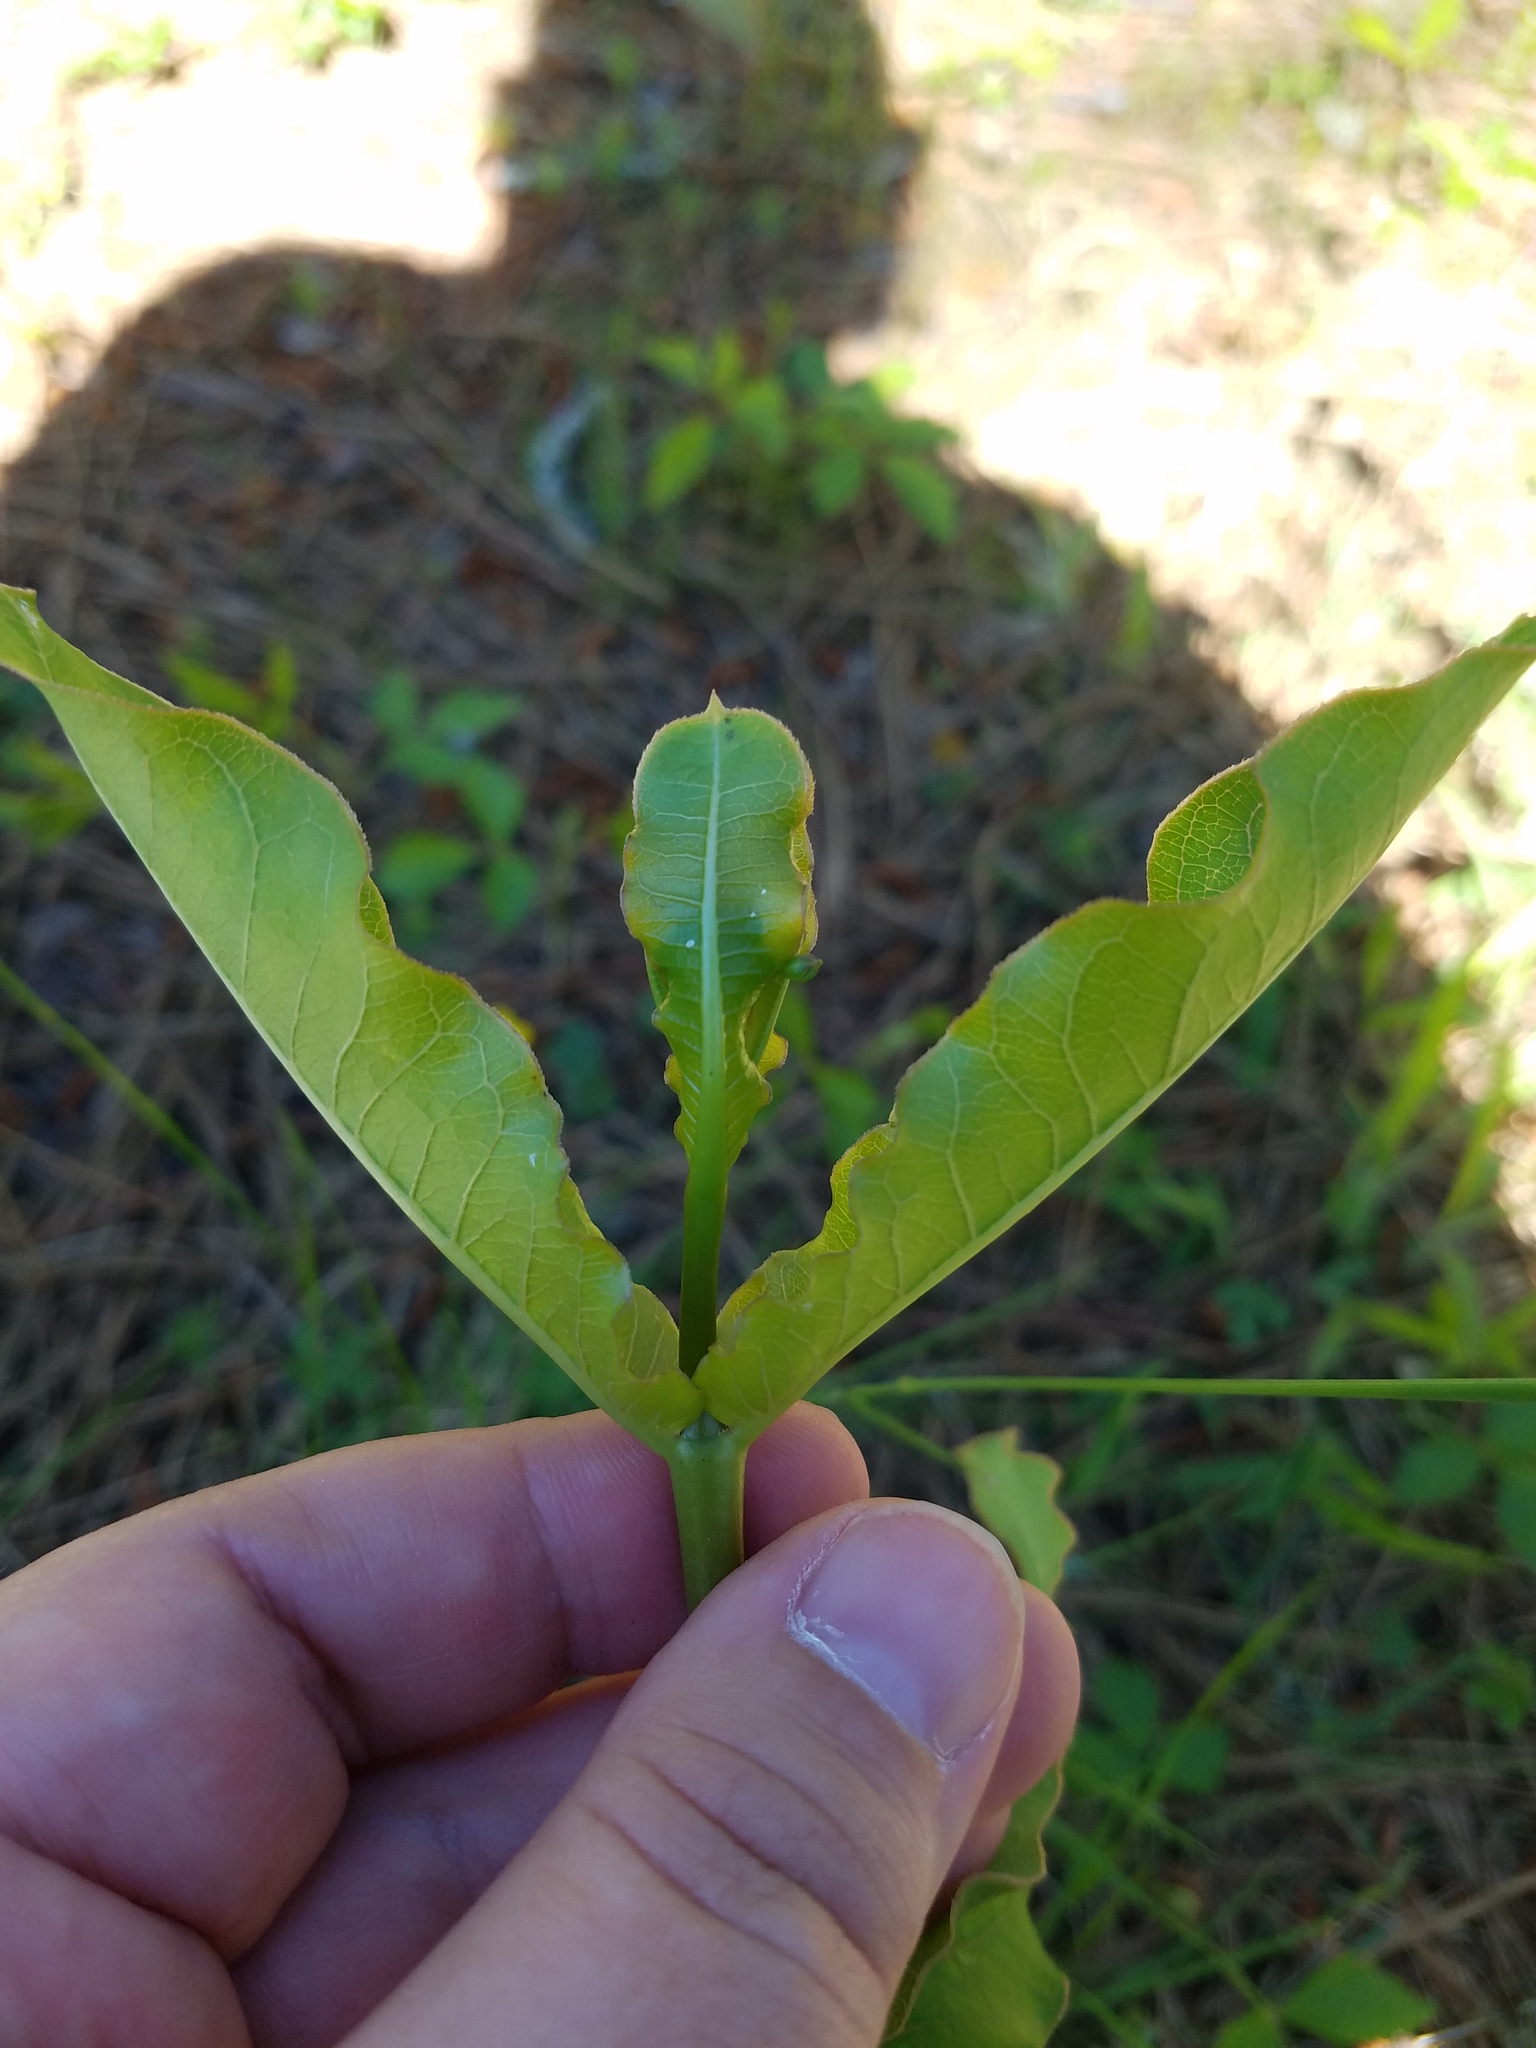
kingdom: Plantae
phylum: Tracheophyta
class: Magnoliopsida
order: Gentianales
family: Apocynaceae
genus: Asclepias
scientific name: Asclepias amplexicaulis
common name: Blunt-leaf milkweed
